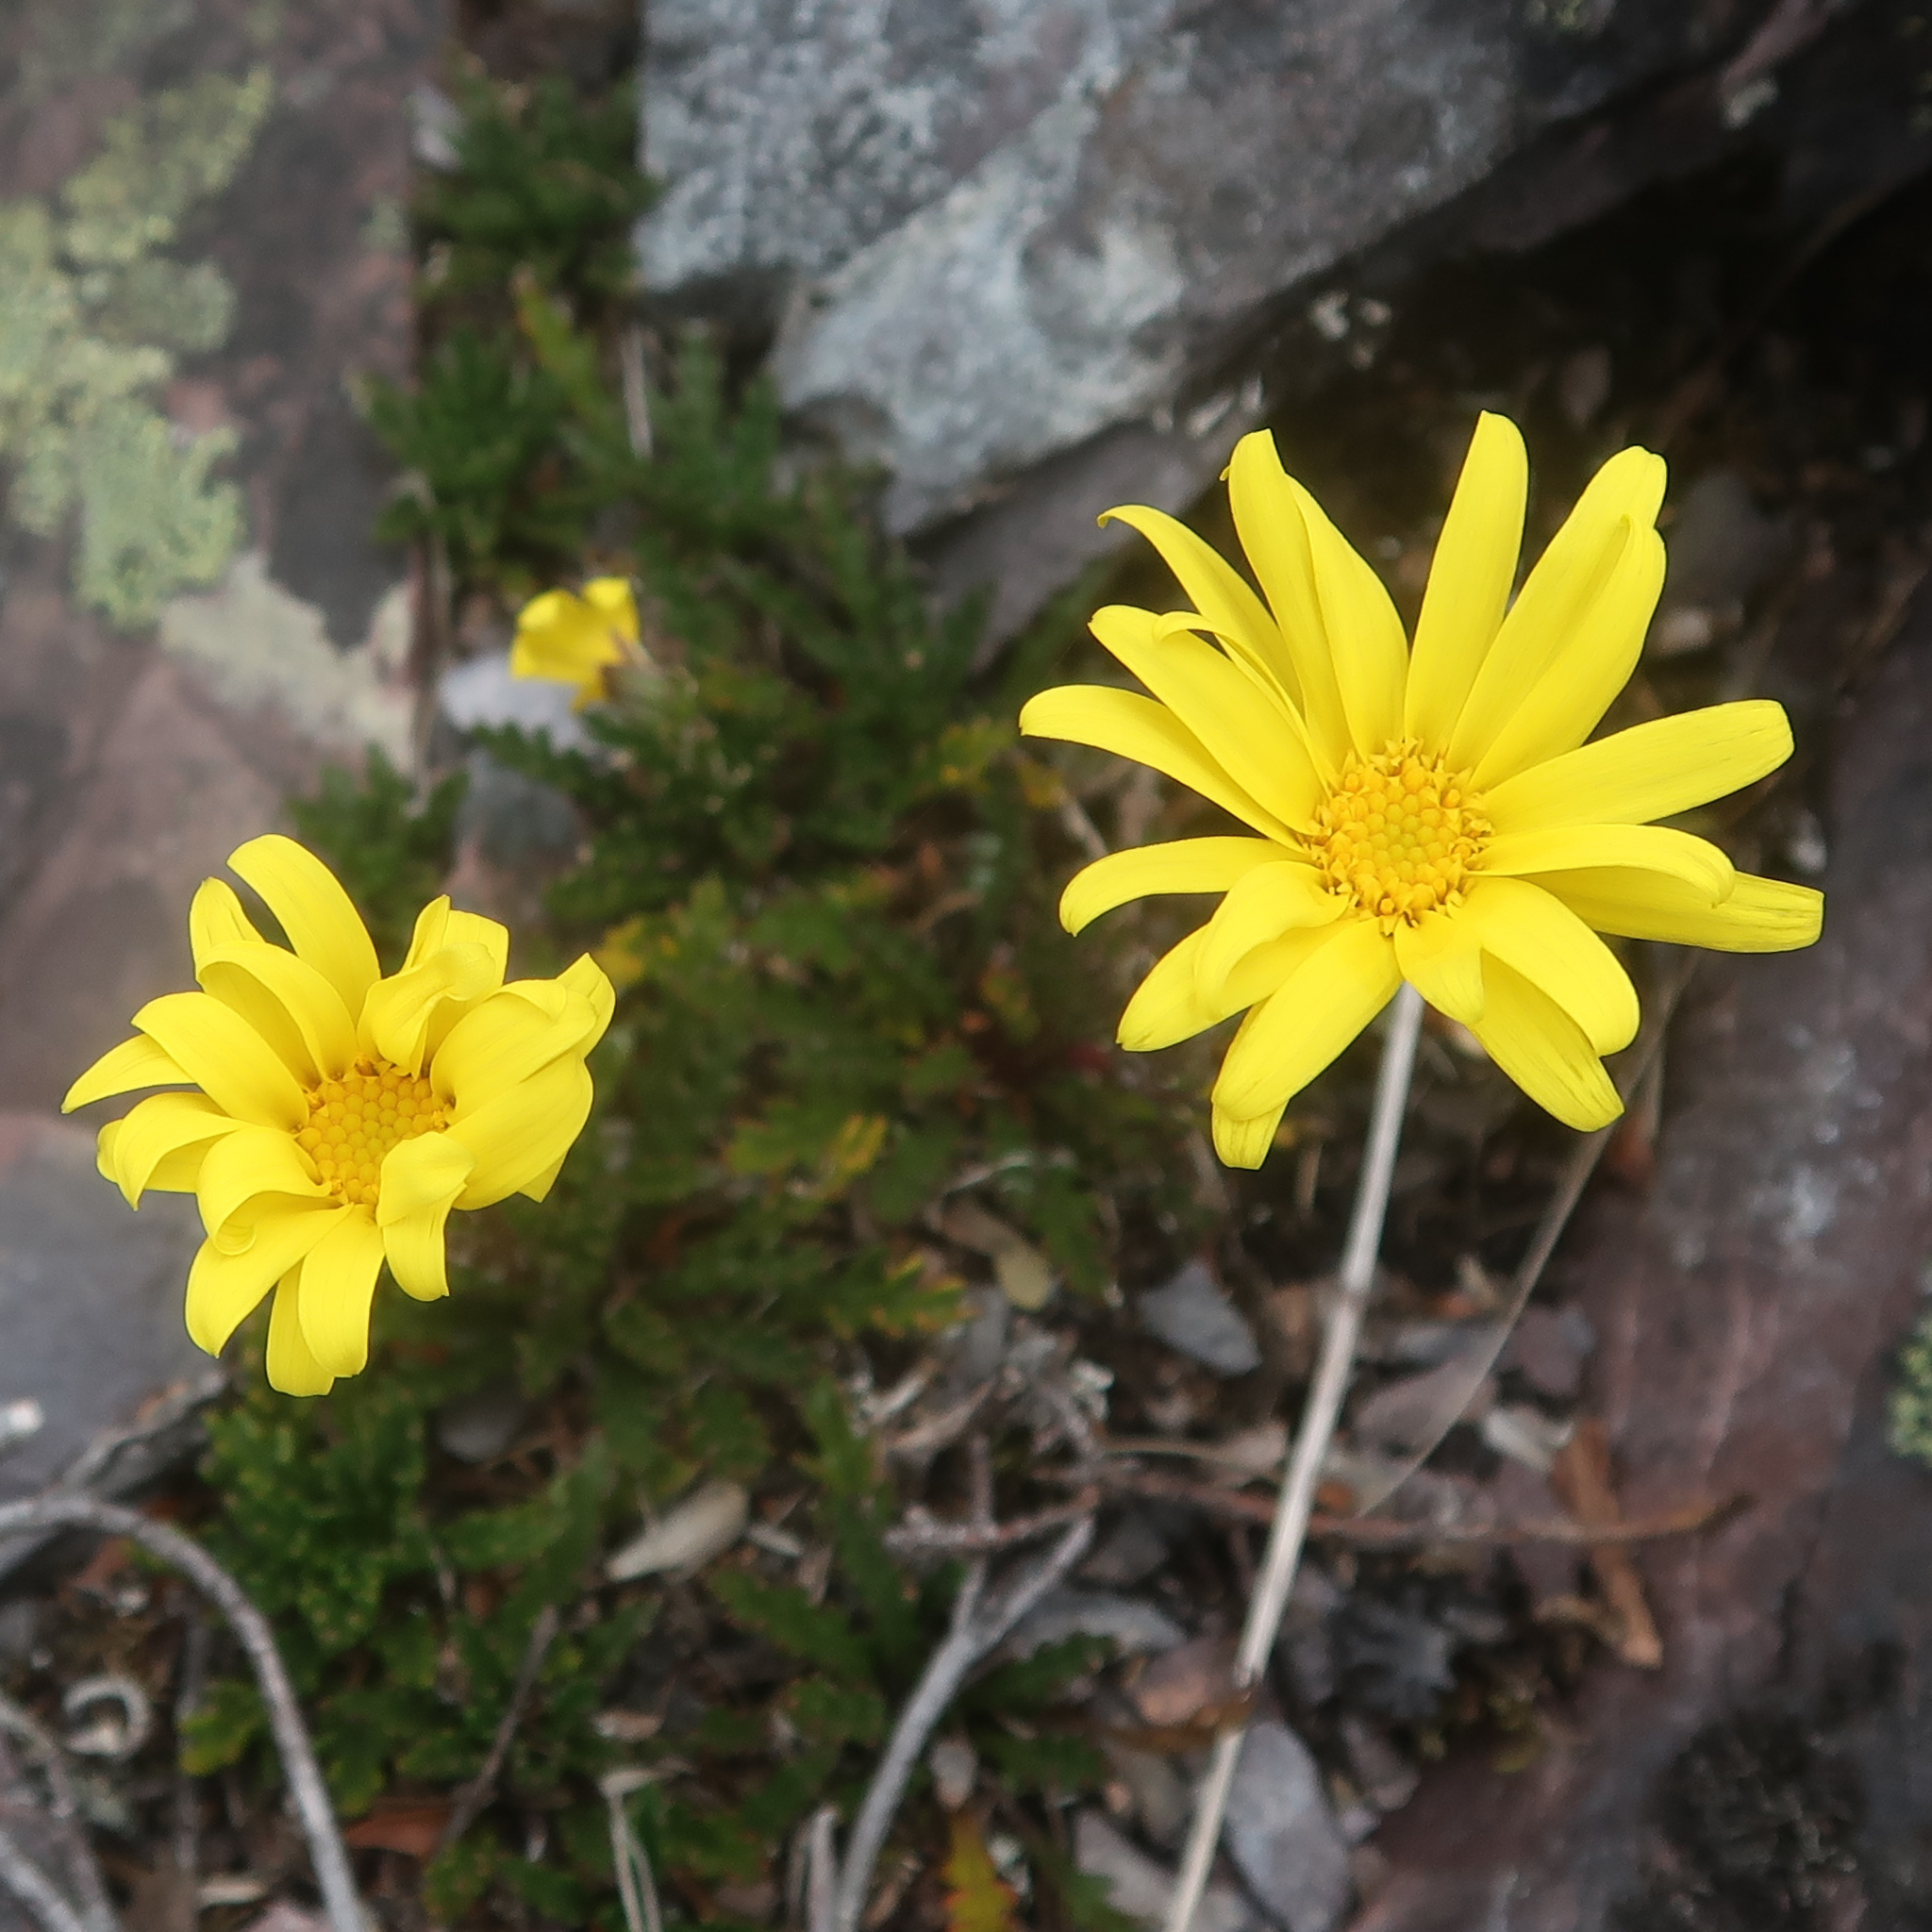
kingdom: Plantae
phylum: Tracheophyta
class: Magnoliopsida
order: Asterales
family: Asteraceae
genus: Scapisenecio
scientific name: Scapisenecio pectinatus
